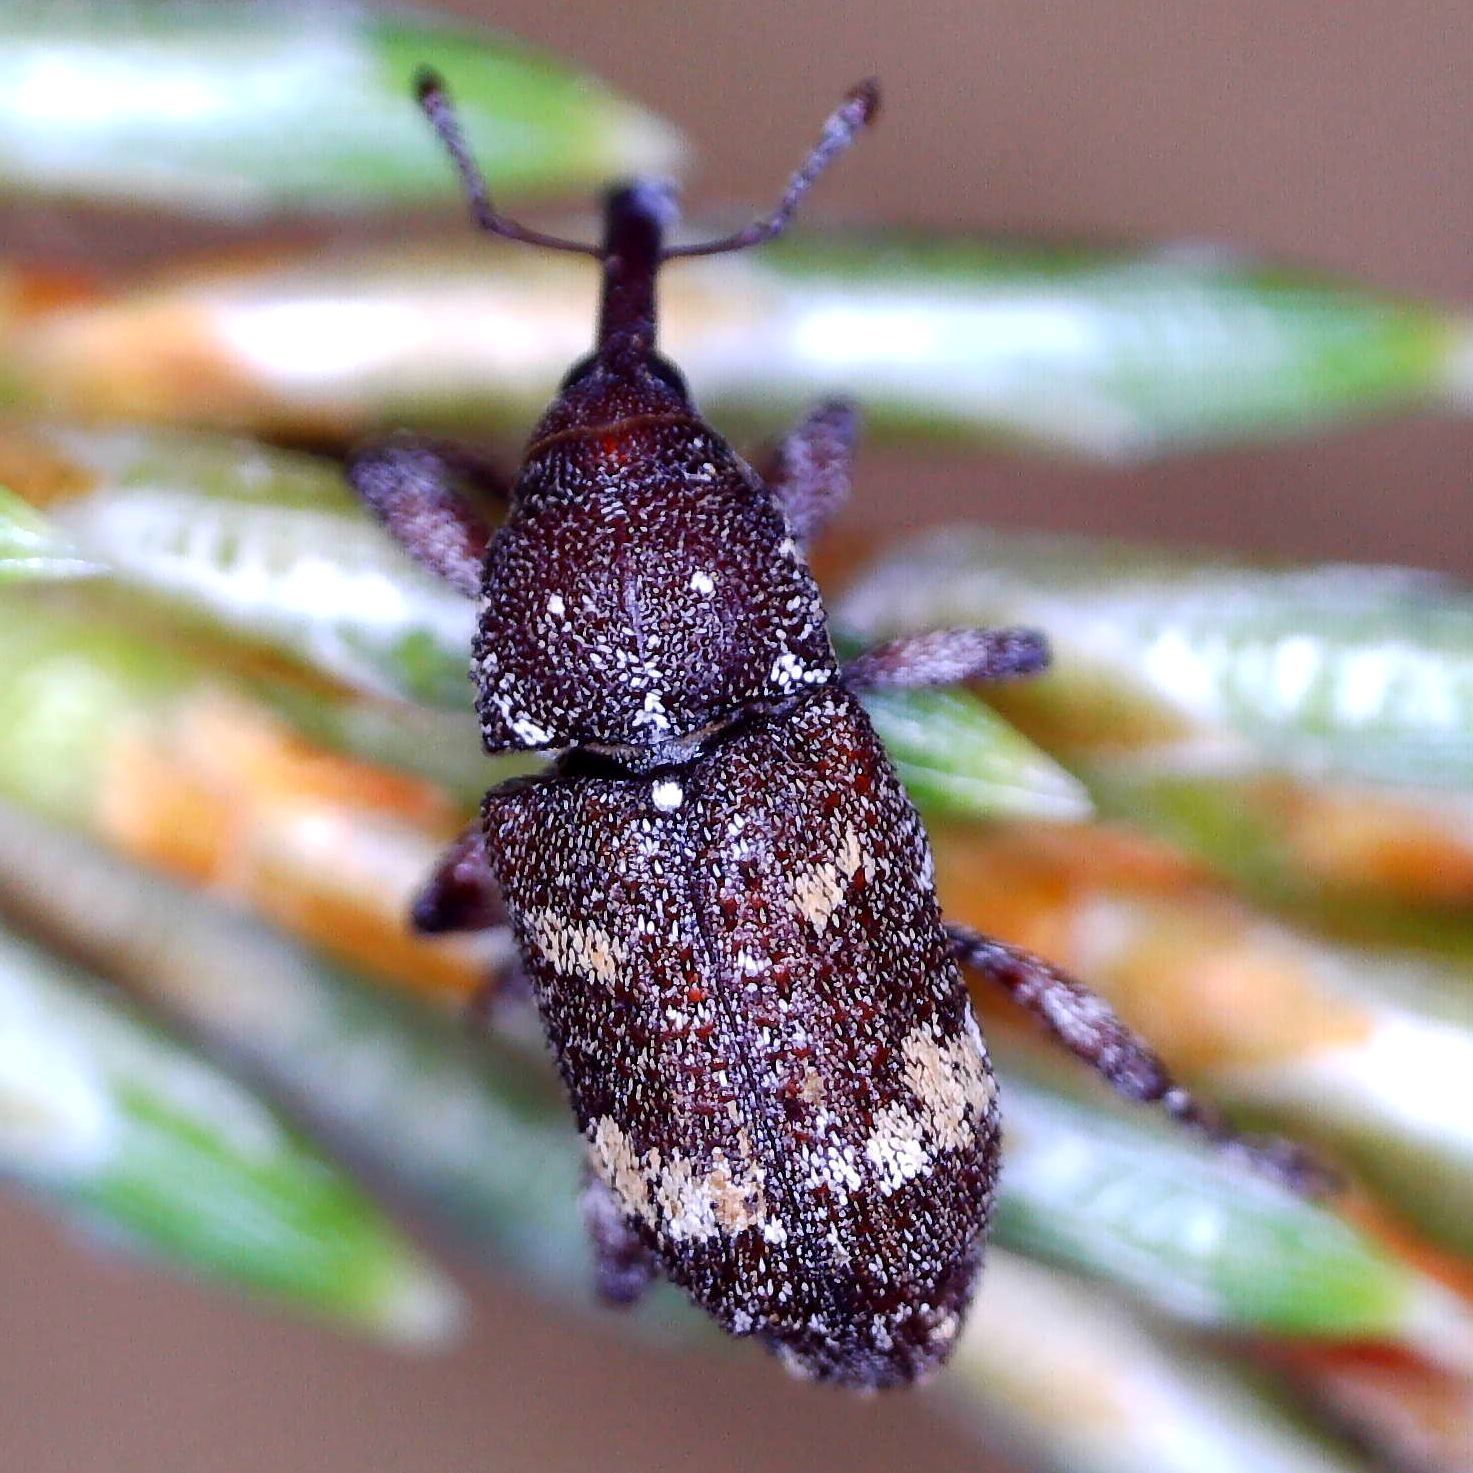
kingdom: Animalia
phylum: Arthropoda
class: Insecta
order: Coleoptera
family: Curculionidae
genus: Pissodes
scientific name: Pissodes castaneus
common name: Banded pine weevil
